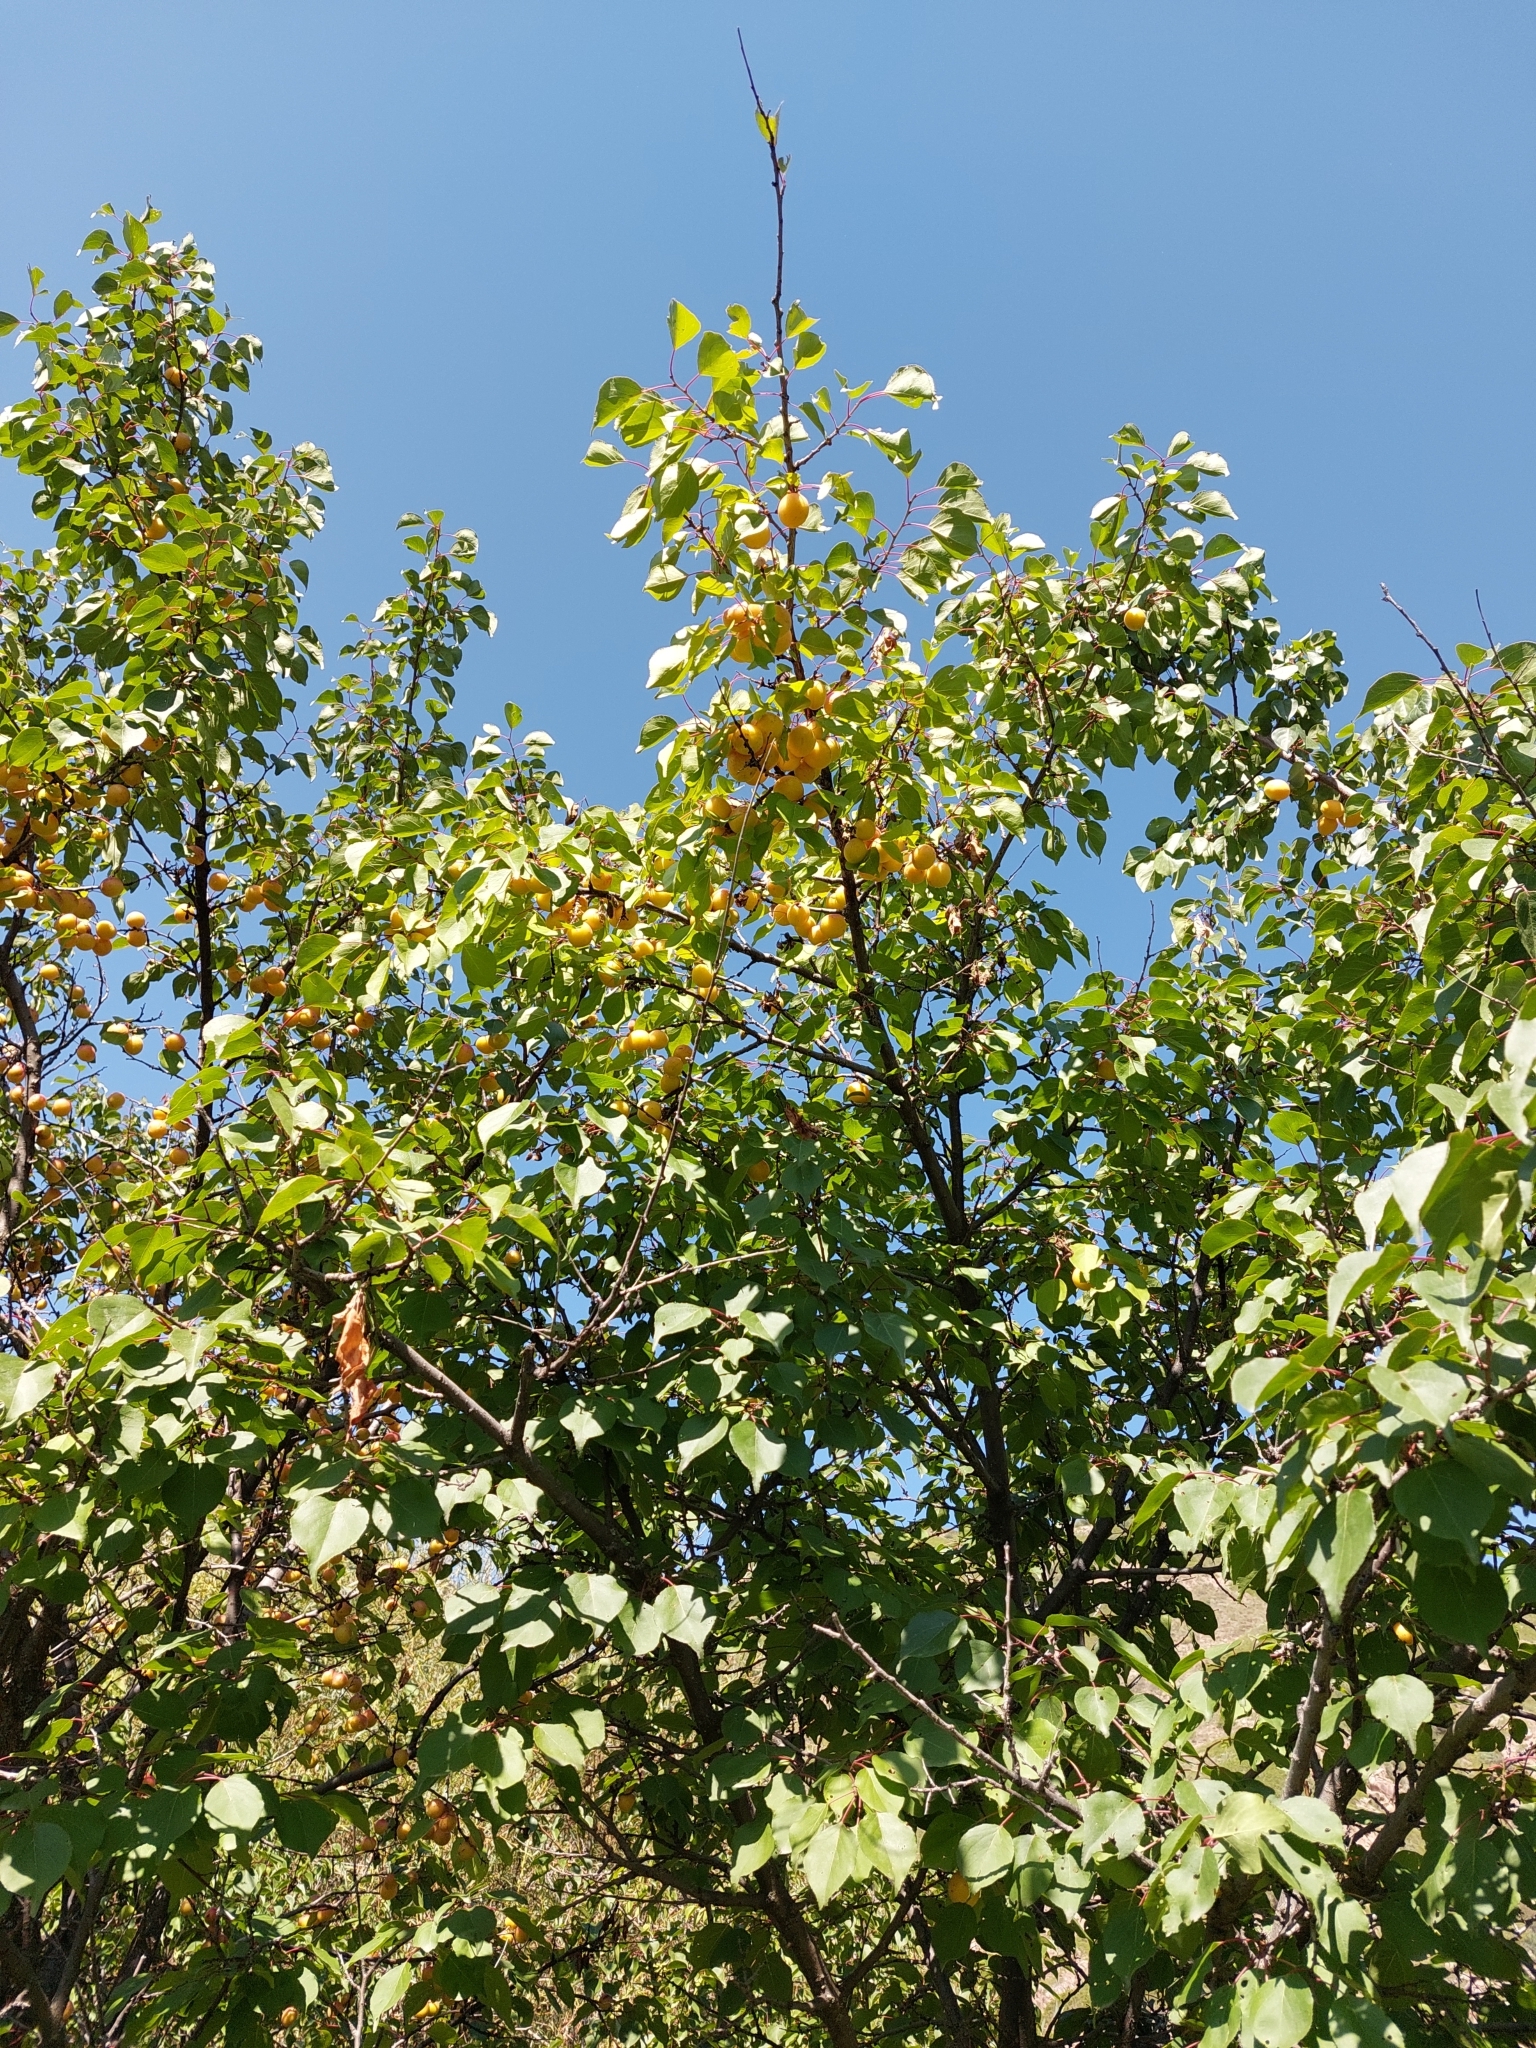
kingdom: Plantae
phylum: Tracheophyta
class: Magnoliopsida
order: Rosales
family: Rosaceae
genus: Prunus
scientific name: Prunus armeniaca
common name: Apricot
